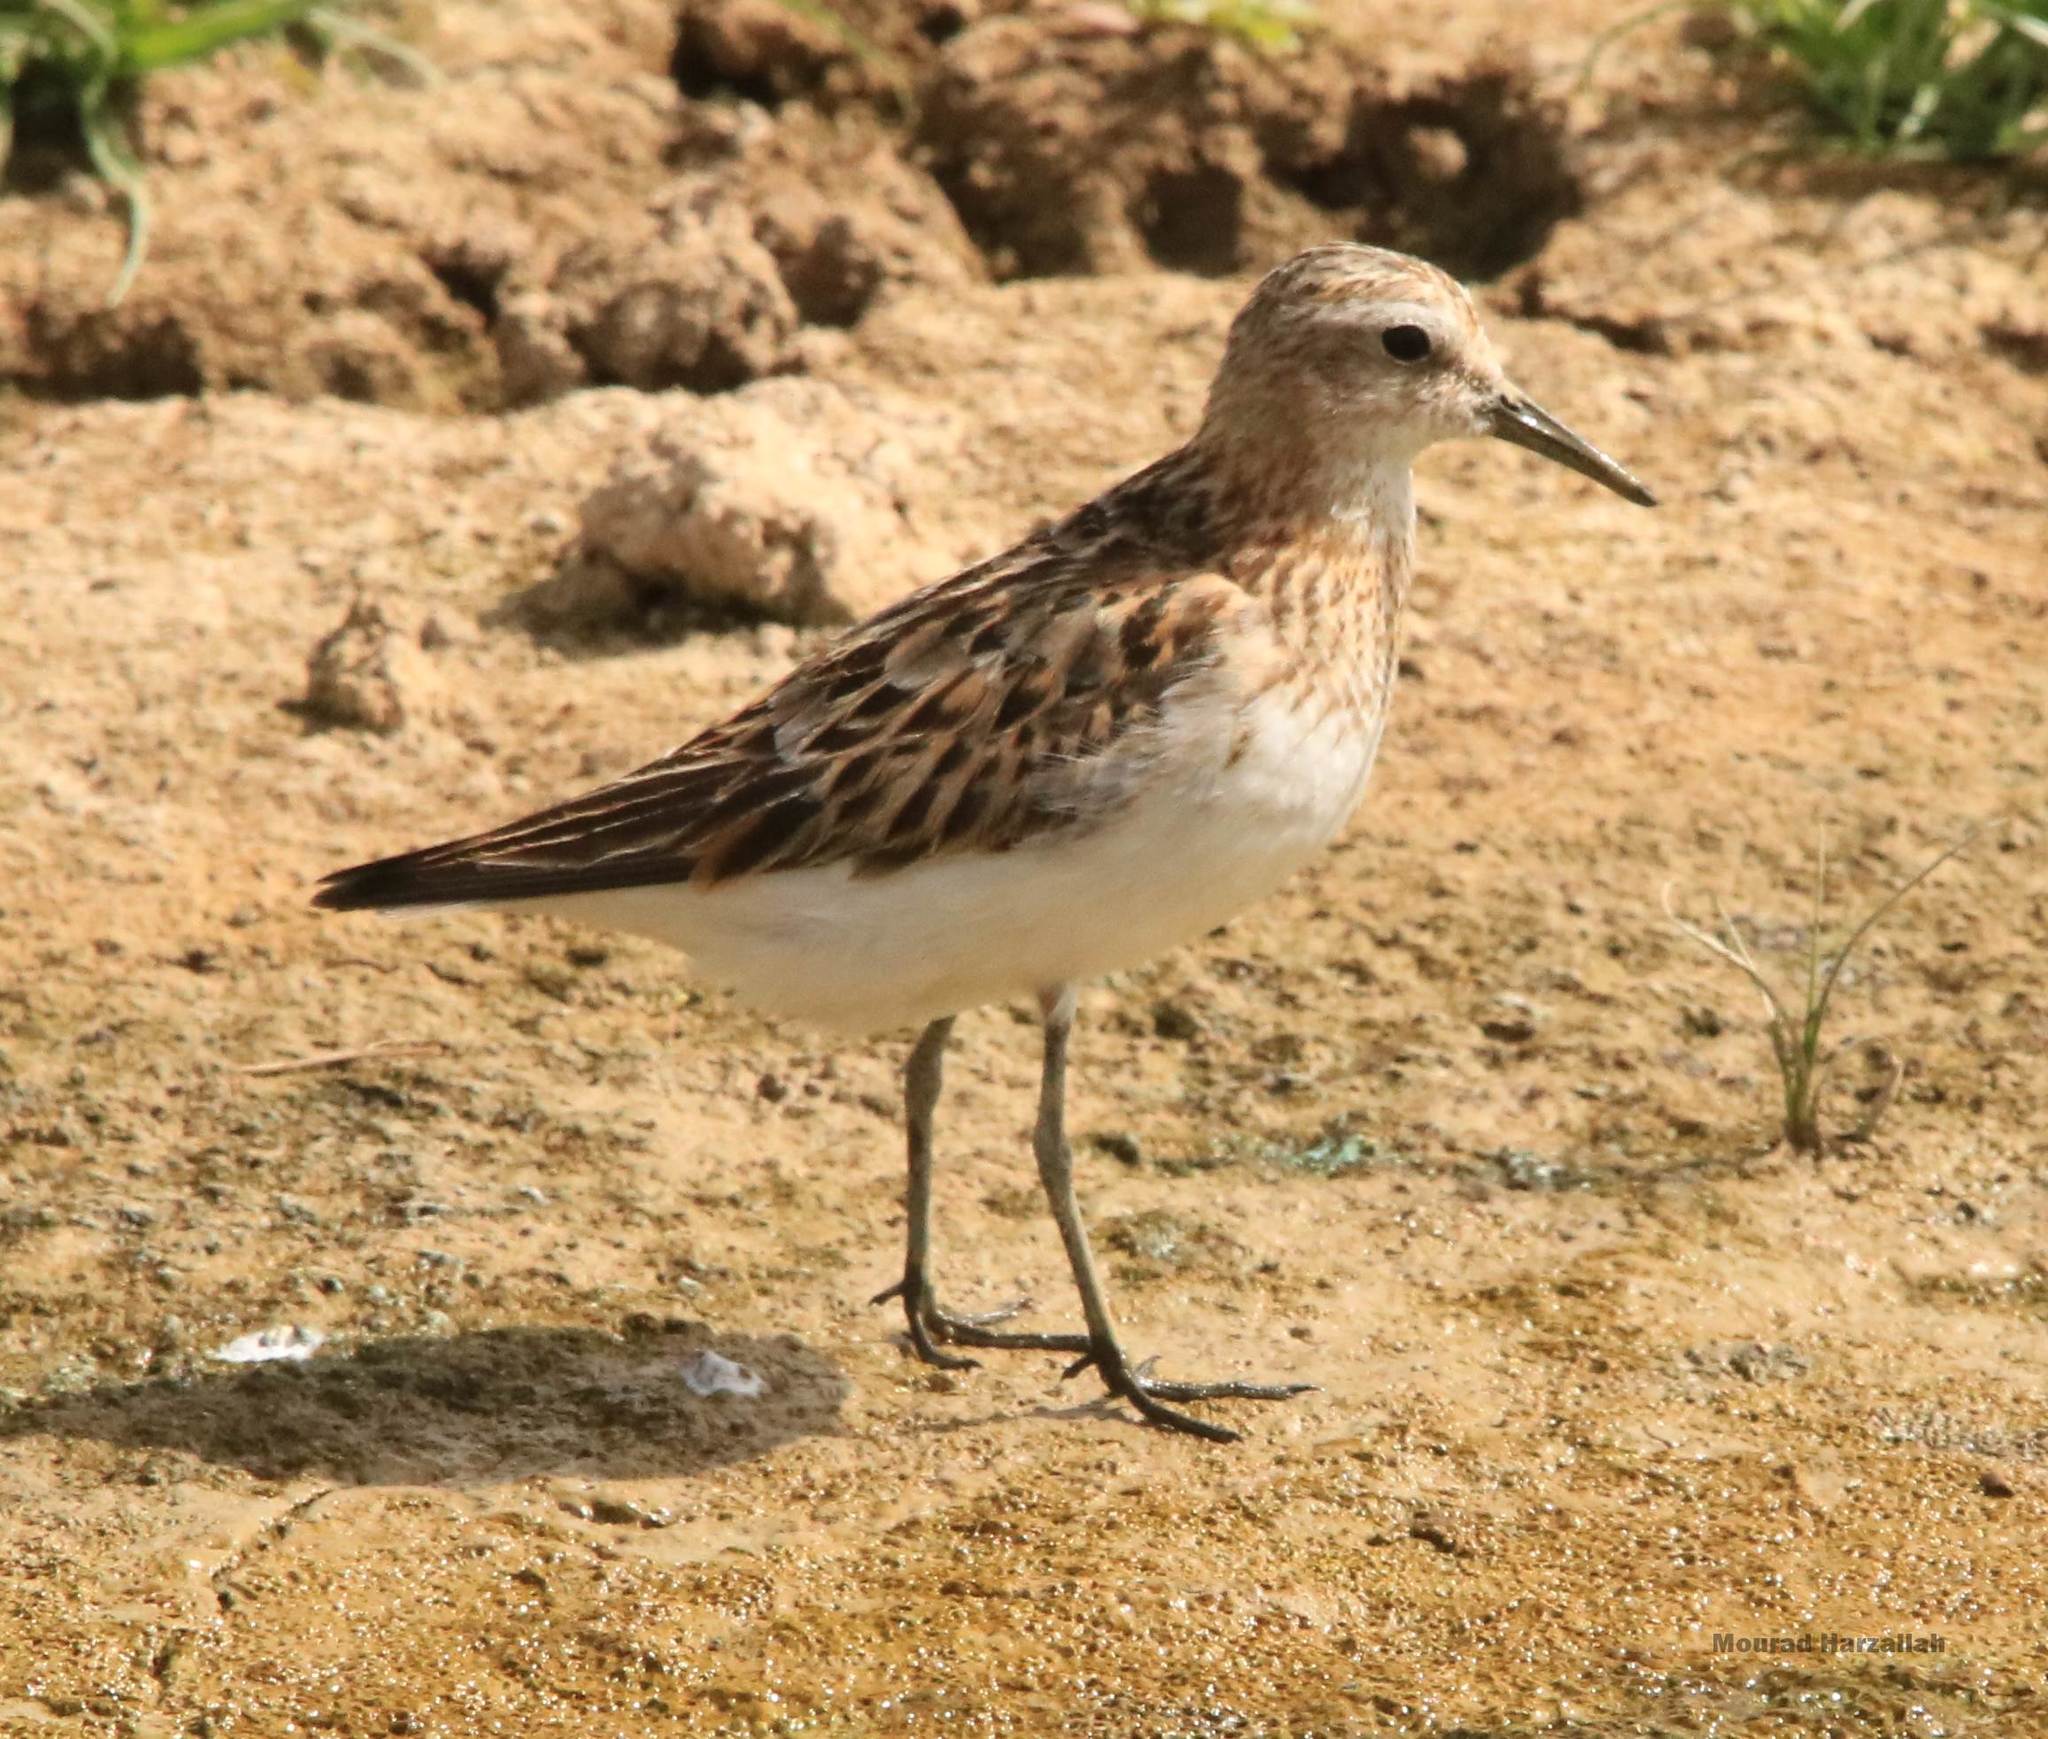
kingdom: Animalia
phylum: Chordata
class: Aves
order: Charadriiformes
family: Scolopacidae
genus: Calidris
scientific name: Calidris minuta
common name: Little stint
